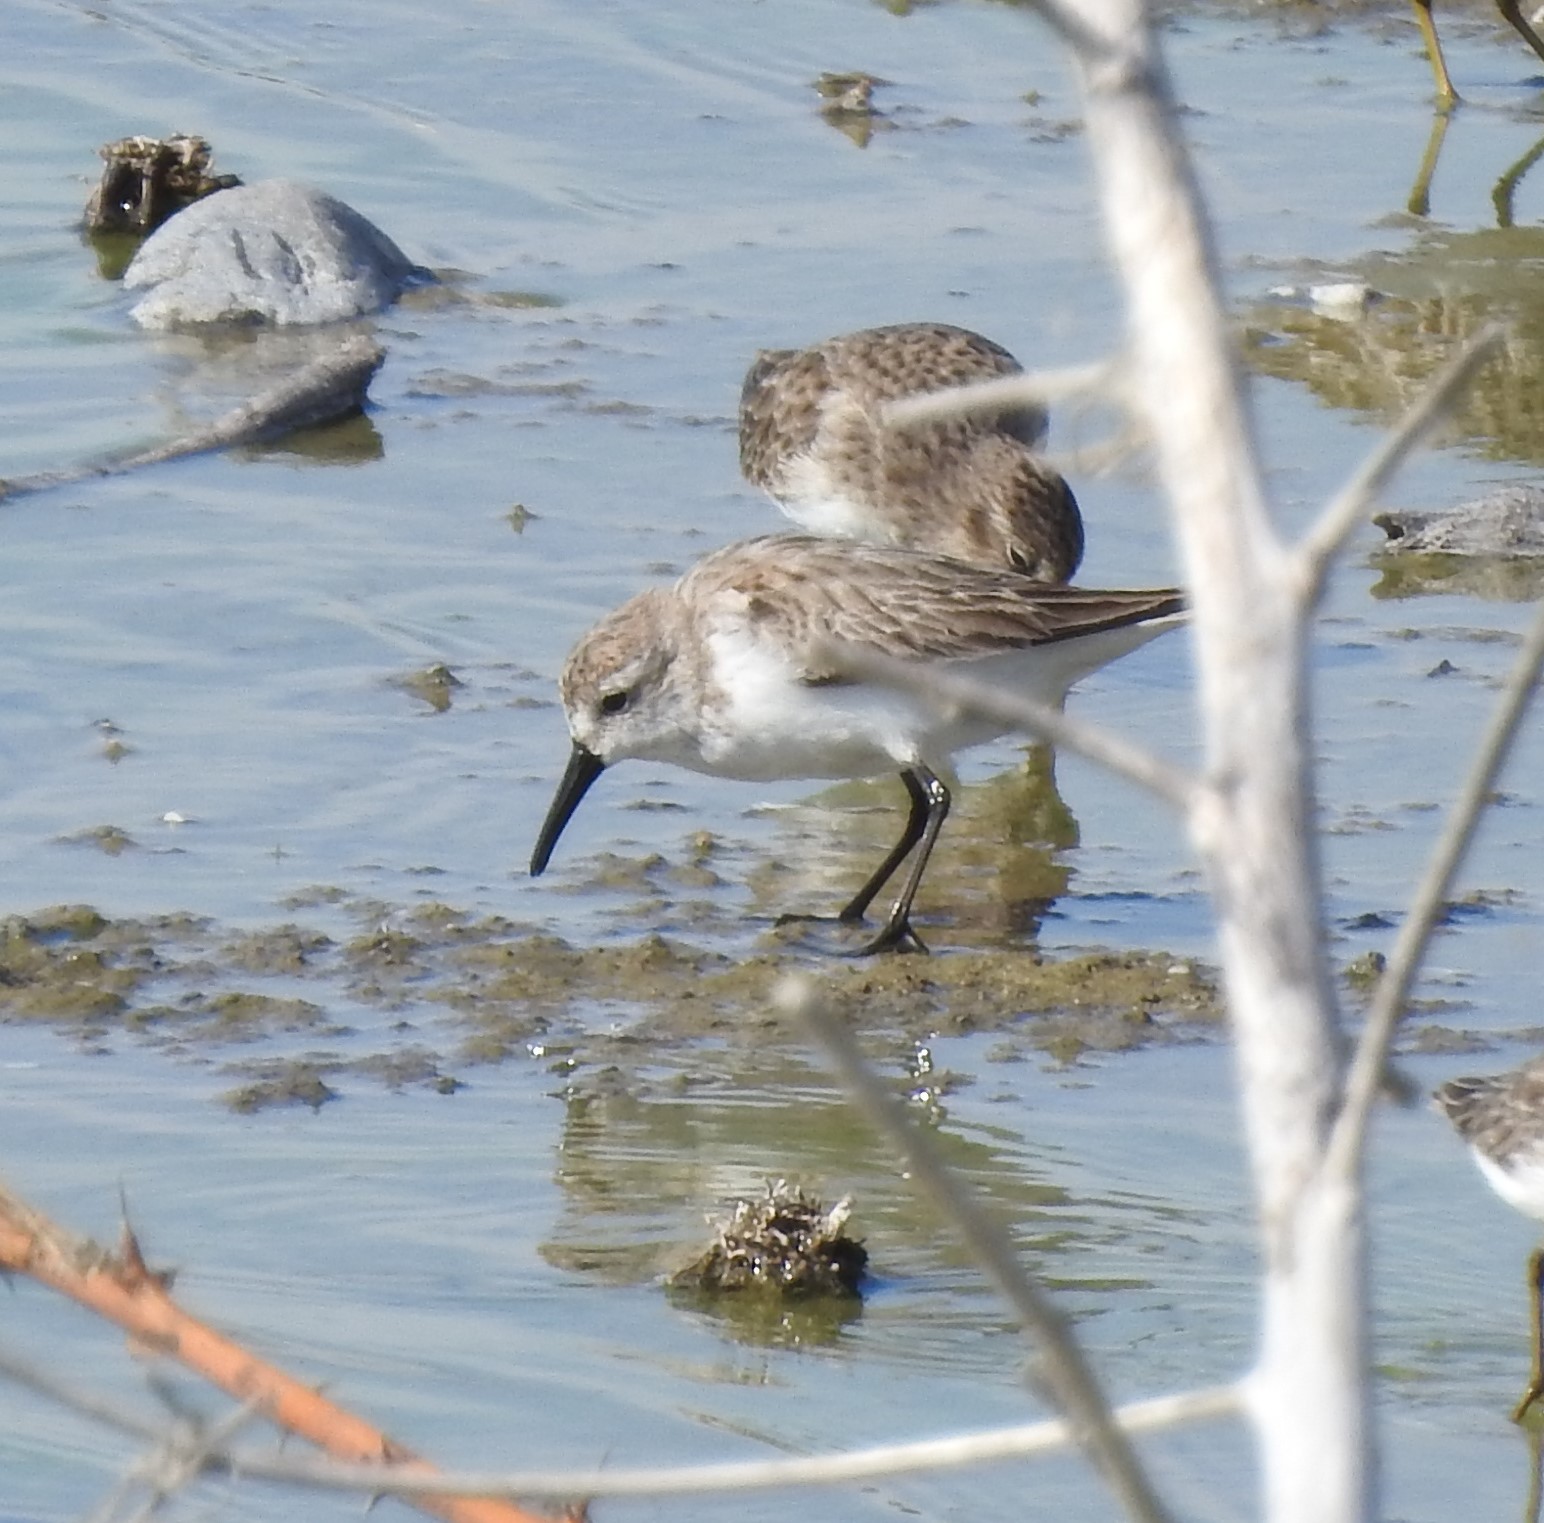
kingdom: Animalia
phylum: Chordata
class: Aves
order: Charadriiformes
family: Scolopacidae
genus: Calidris
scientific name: Calidris mauri
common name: Western sandpiper
